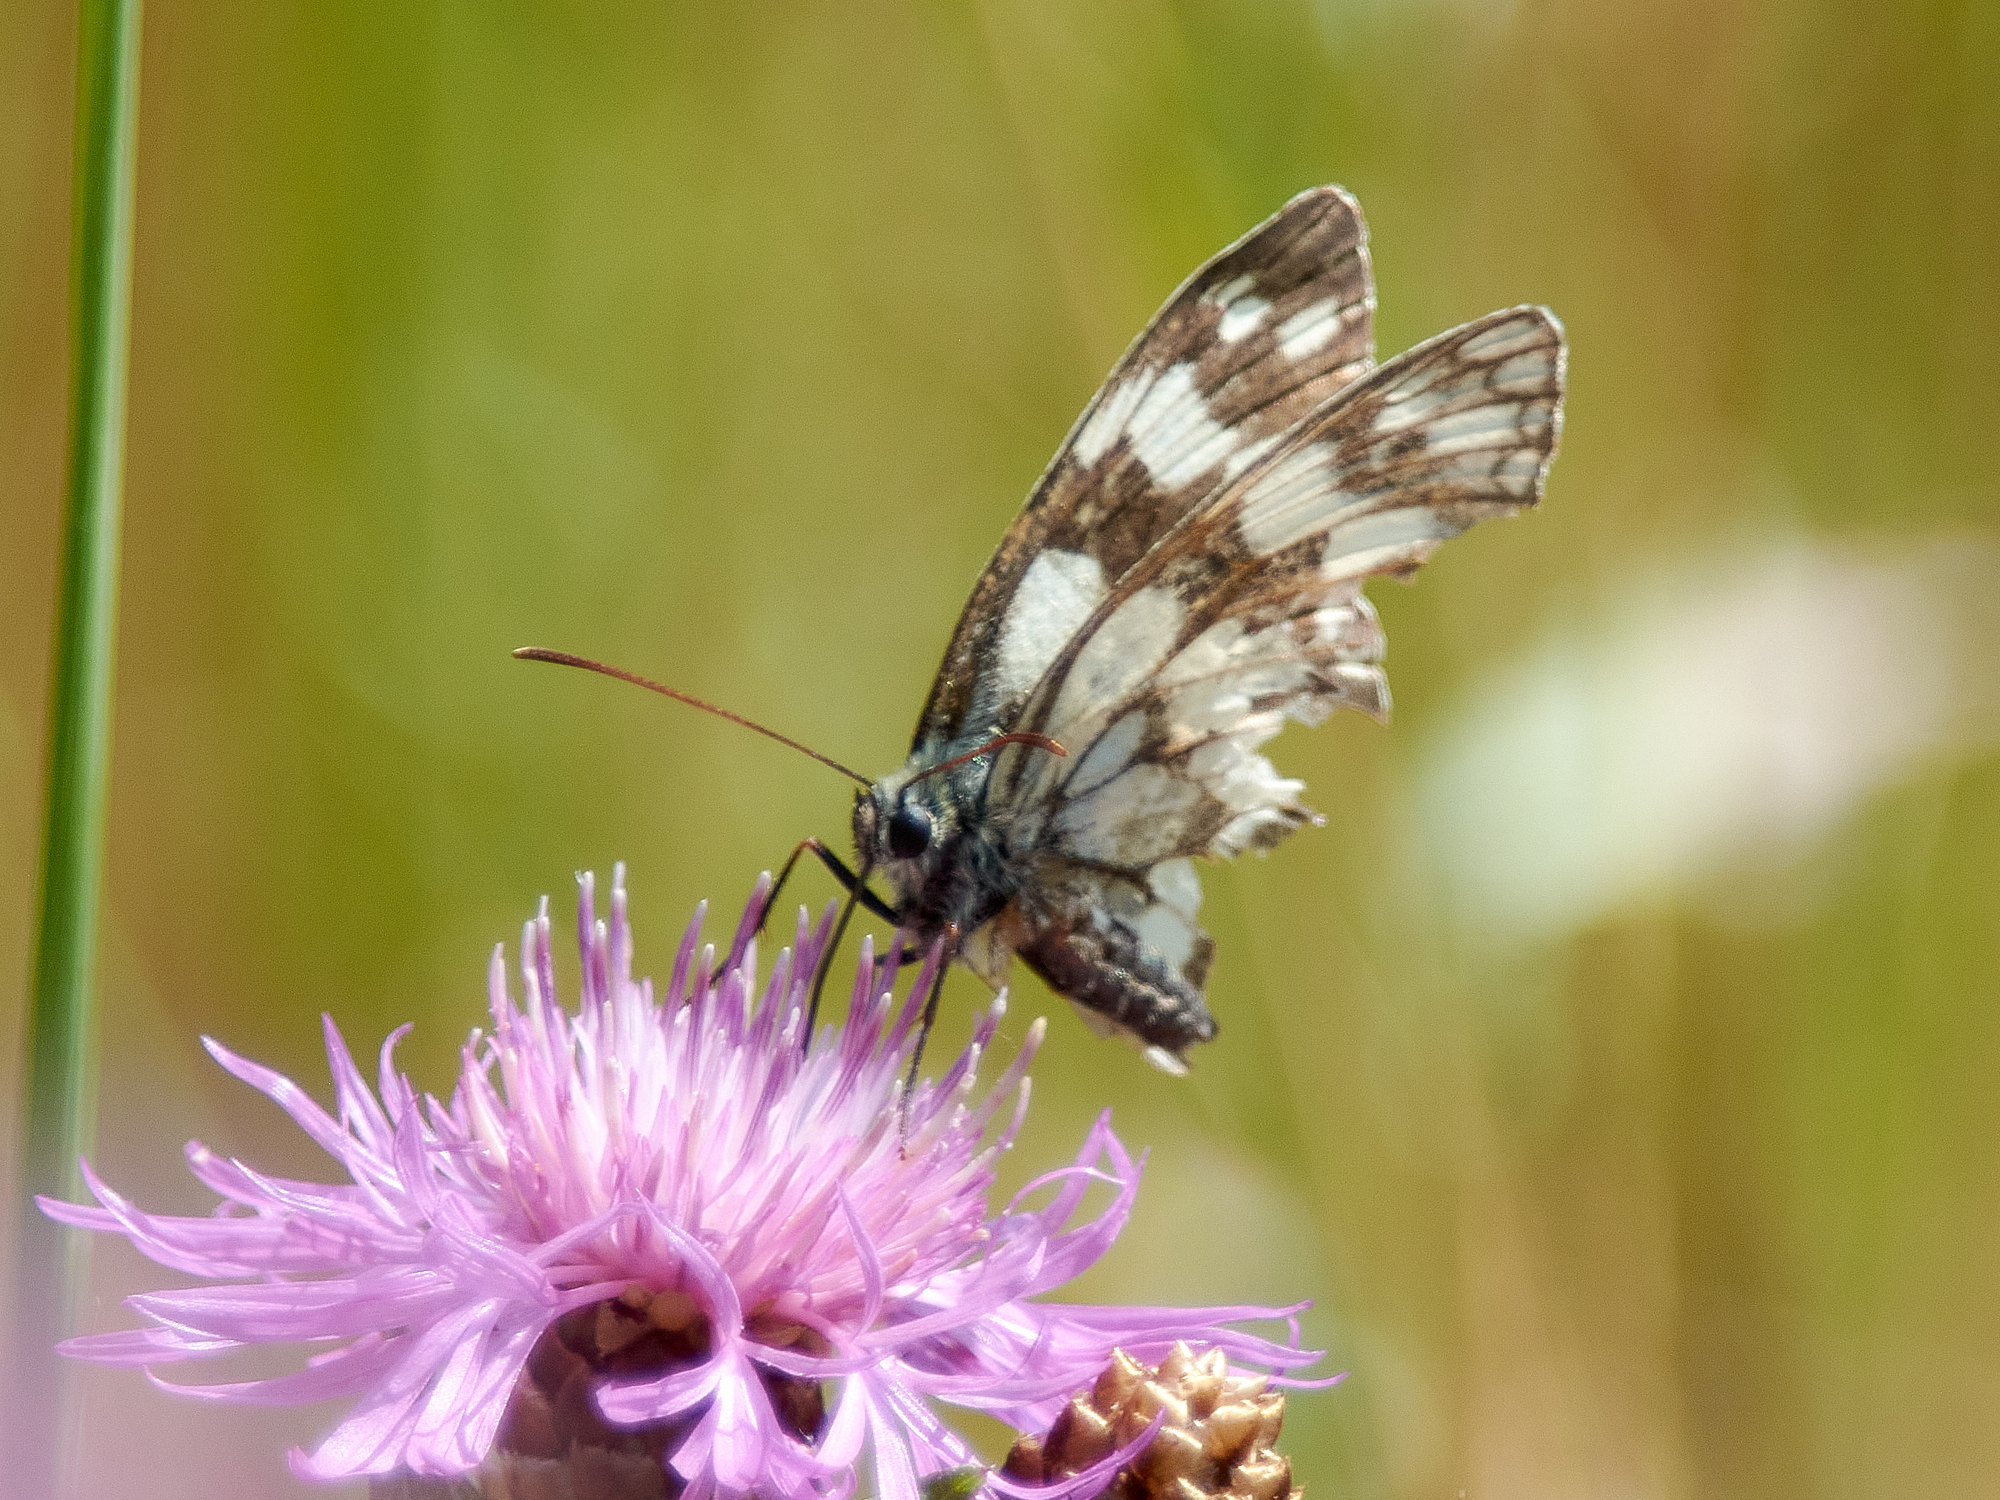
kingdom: Animalia
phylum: Arthropoda
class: Insecta
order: Lepidoptera
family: Nymphalidae
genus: Melanargia
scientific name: Melanargia galathea
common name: Marbled white
